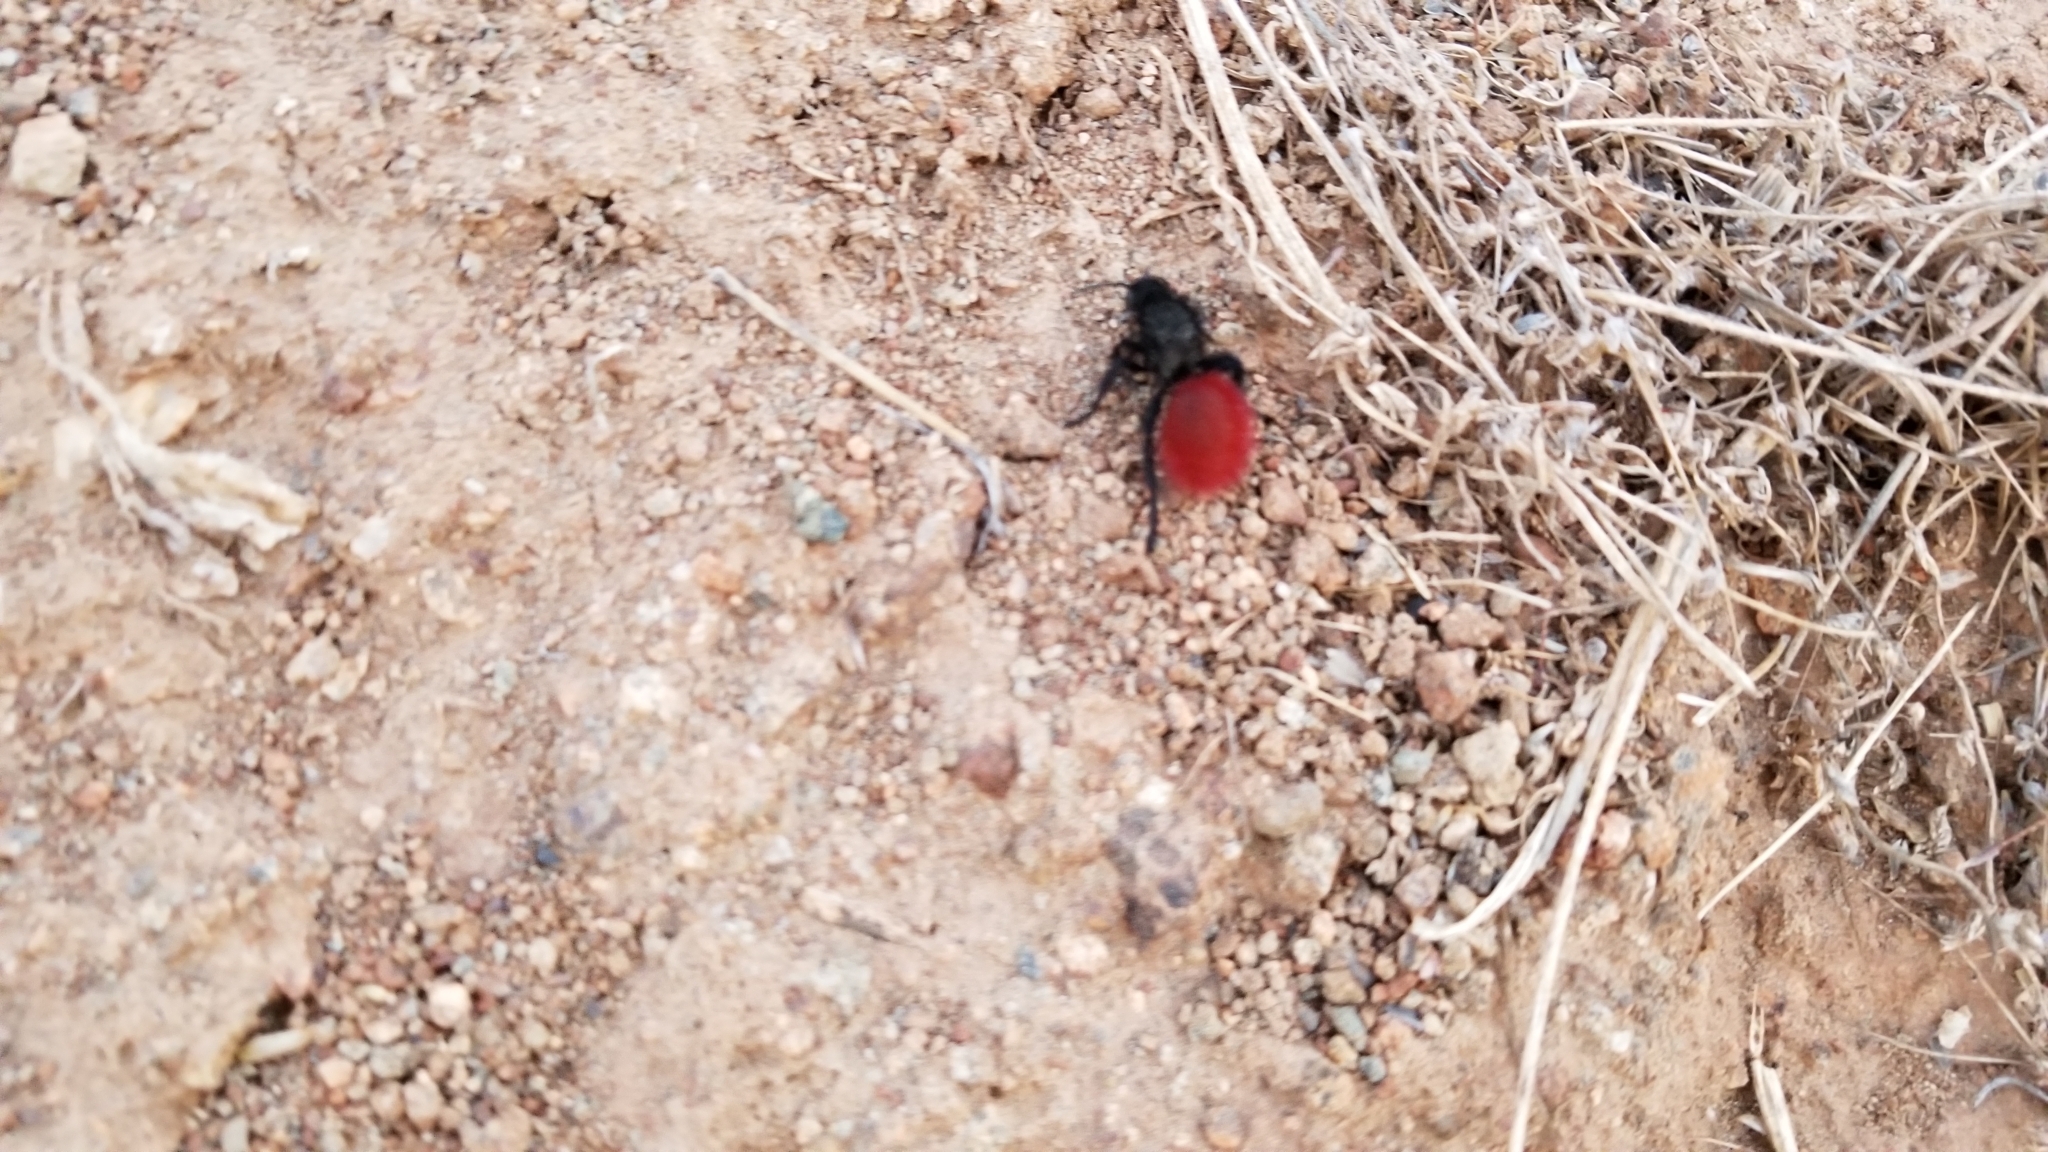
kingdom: Animalia
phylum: Arthropoda
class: Insecta
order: Hymenoptera
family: Mutillidae
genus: Dasymutilla
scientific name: Dasymutilla magnifica
